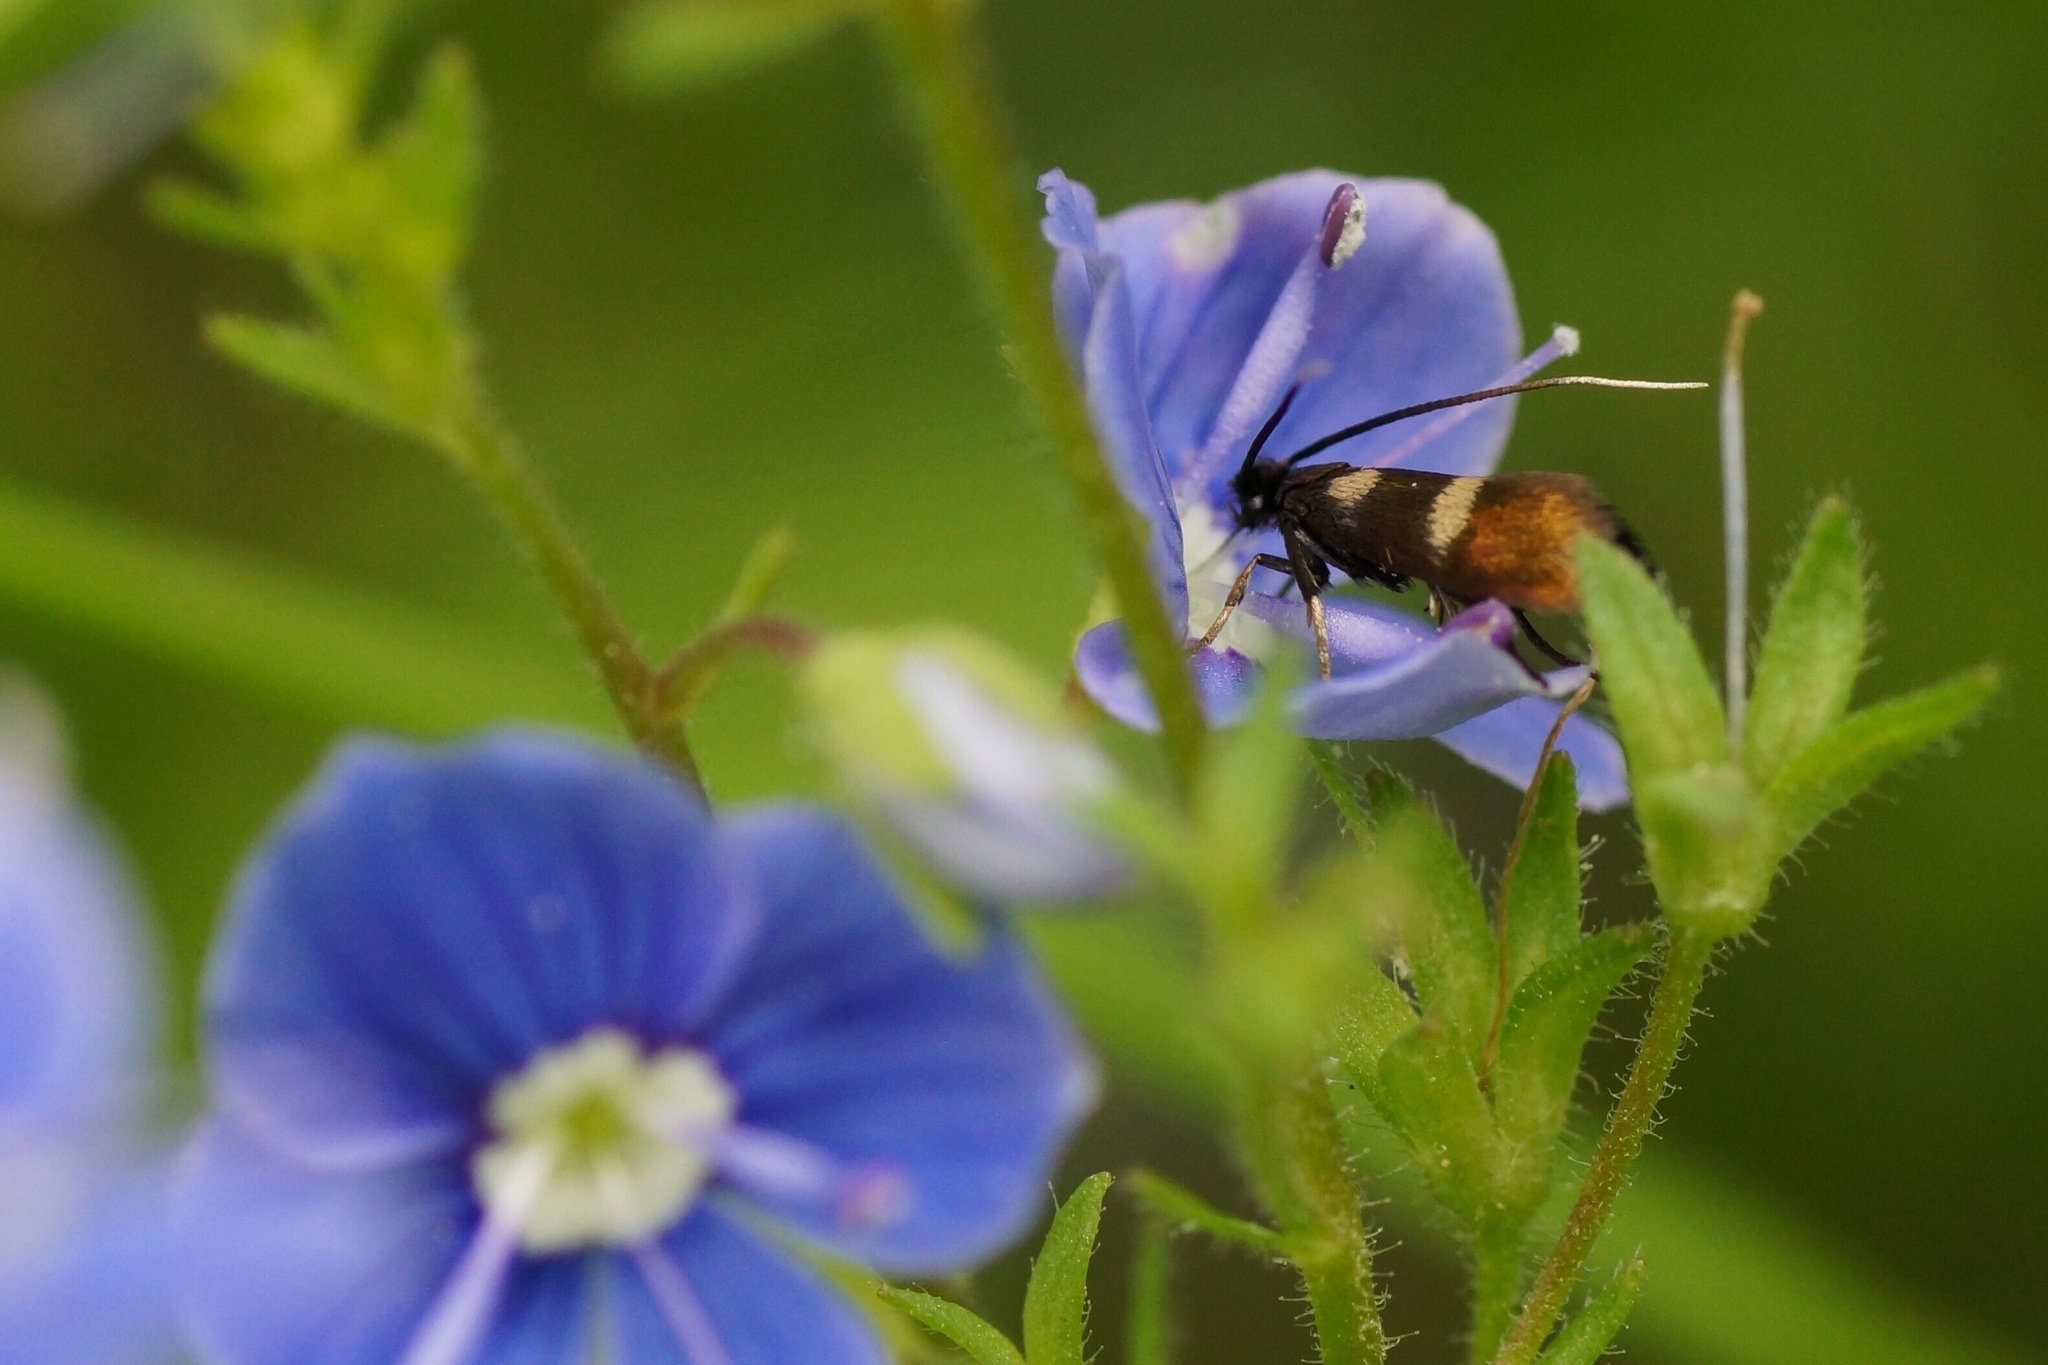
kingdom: Animalia
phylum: Arthropoda
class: Insecta
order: Lepidoptera
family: Adelidae
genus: Cauchas
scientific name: Cauchas fibulella
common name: Little long-horn
